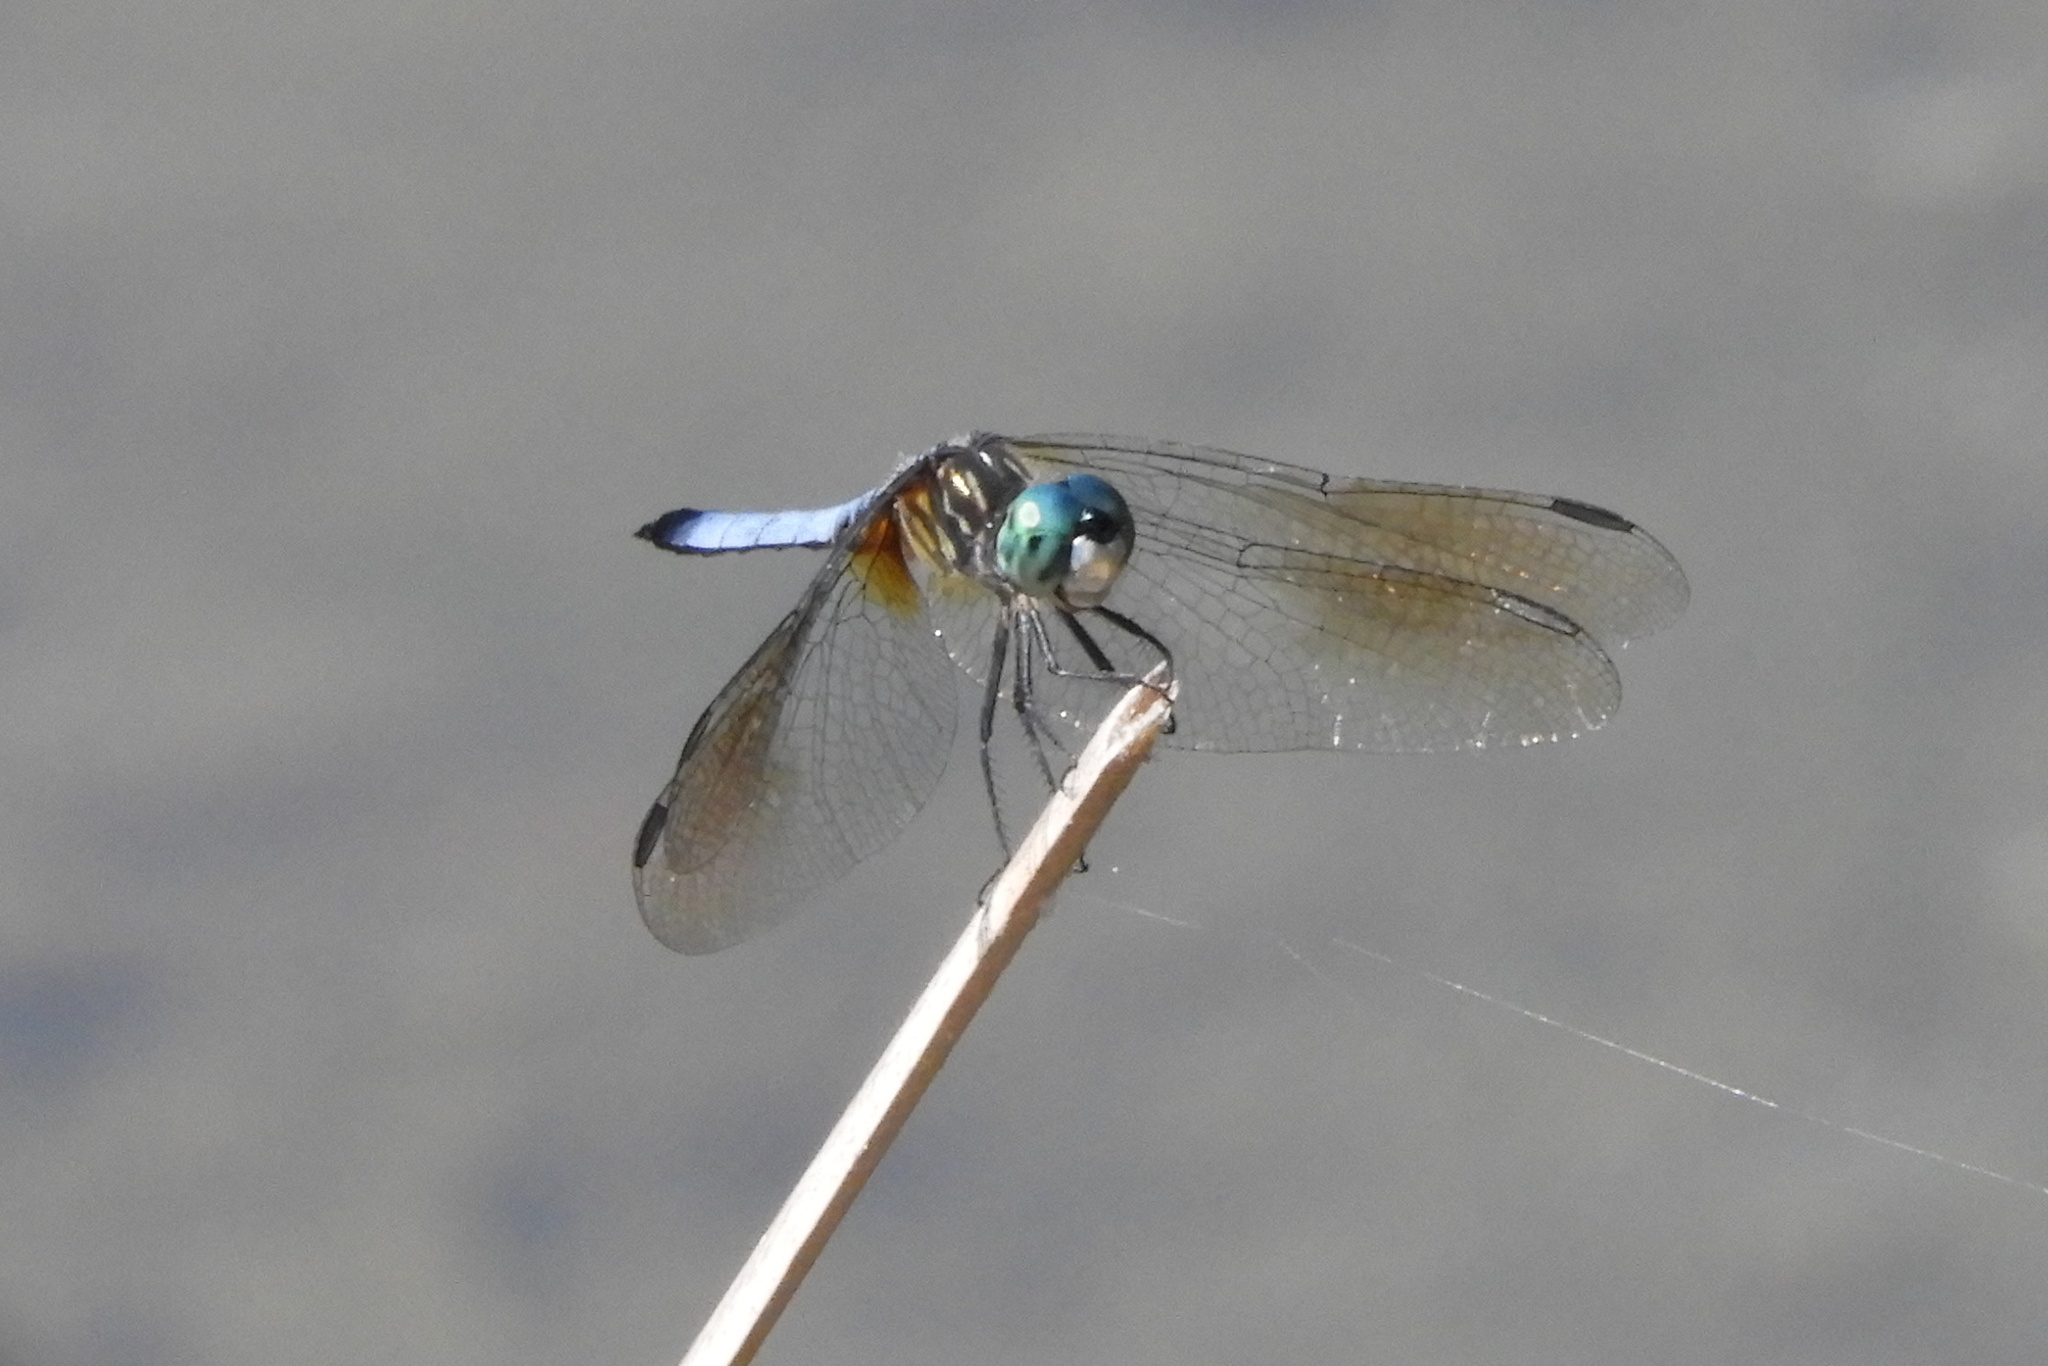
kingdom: Animalia
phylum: Arthropoda
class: Insecta
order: Odonata
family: Libellulidae
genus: Pachydiplax
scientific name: Pachydiplax longipennis
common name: Blue dasher
